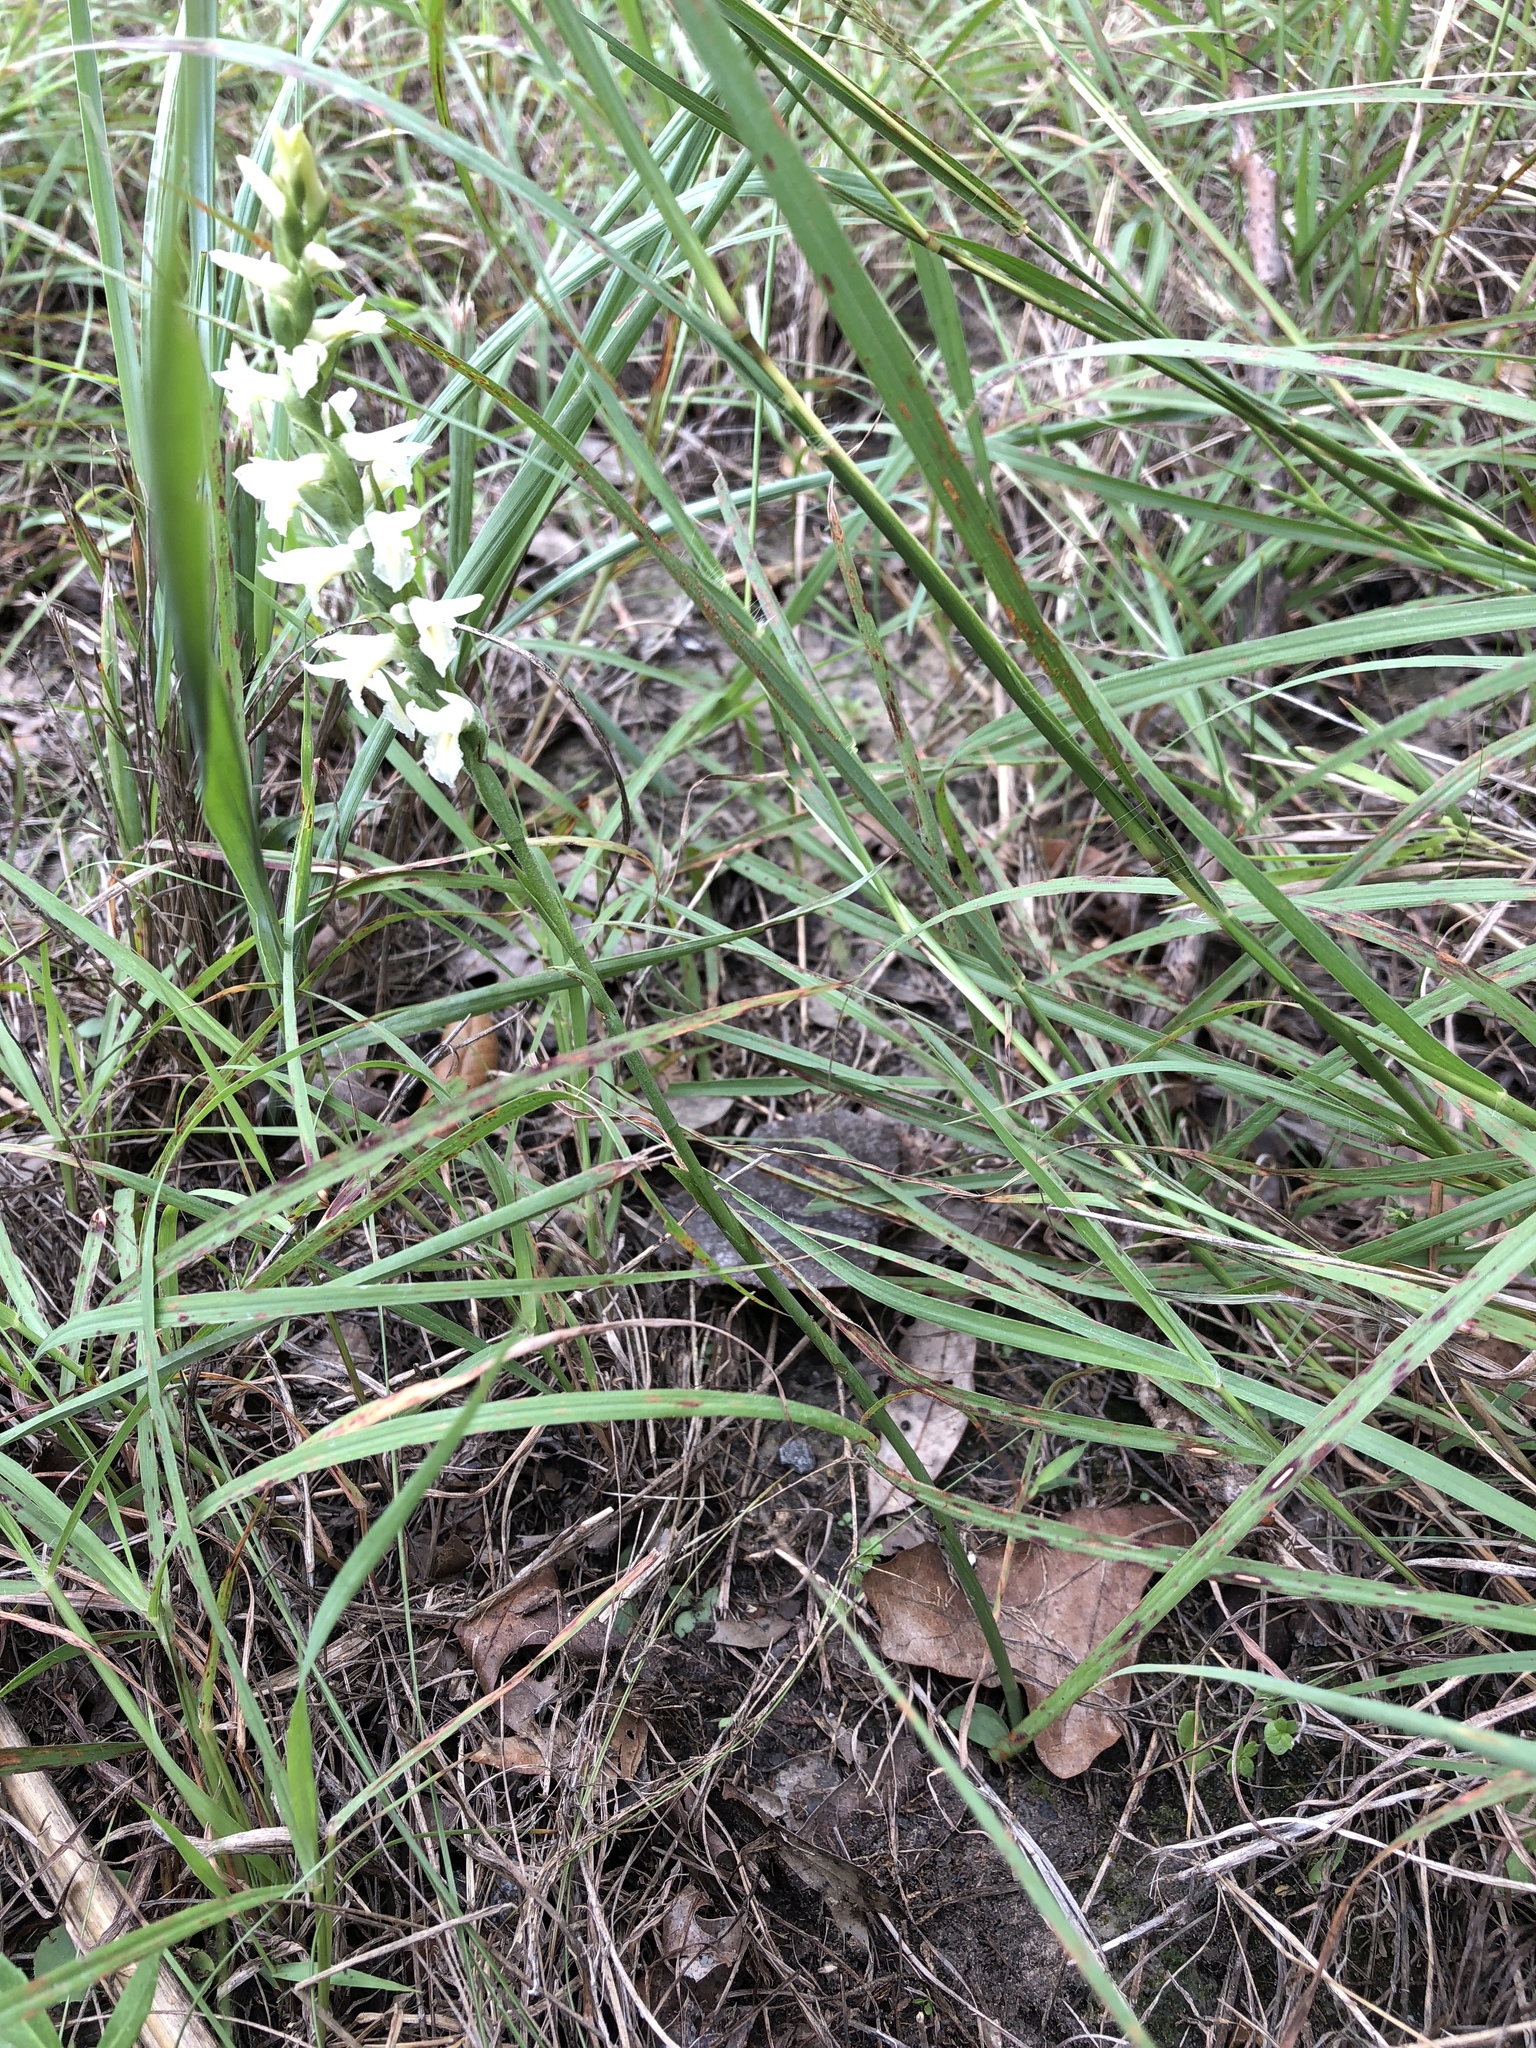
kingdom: Plantae
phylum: Tracheophyta
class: Liliopsida
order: Asparagales
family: Orchidaceae
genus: Spiranthes
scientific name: Spiranthes magnicamporum
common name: Great plains ladies'-tresses
